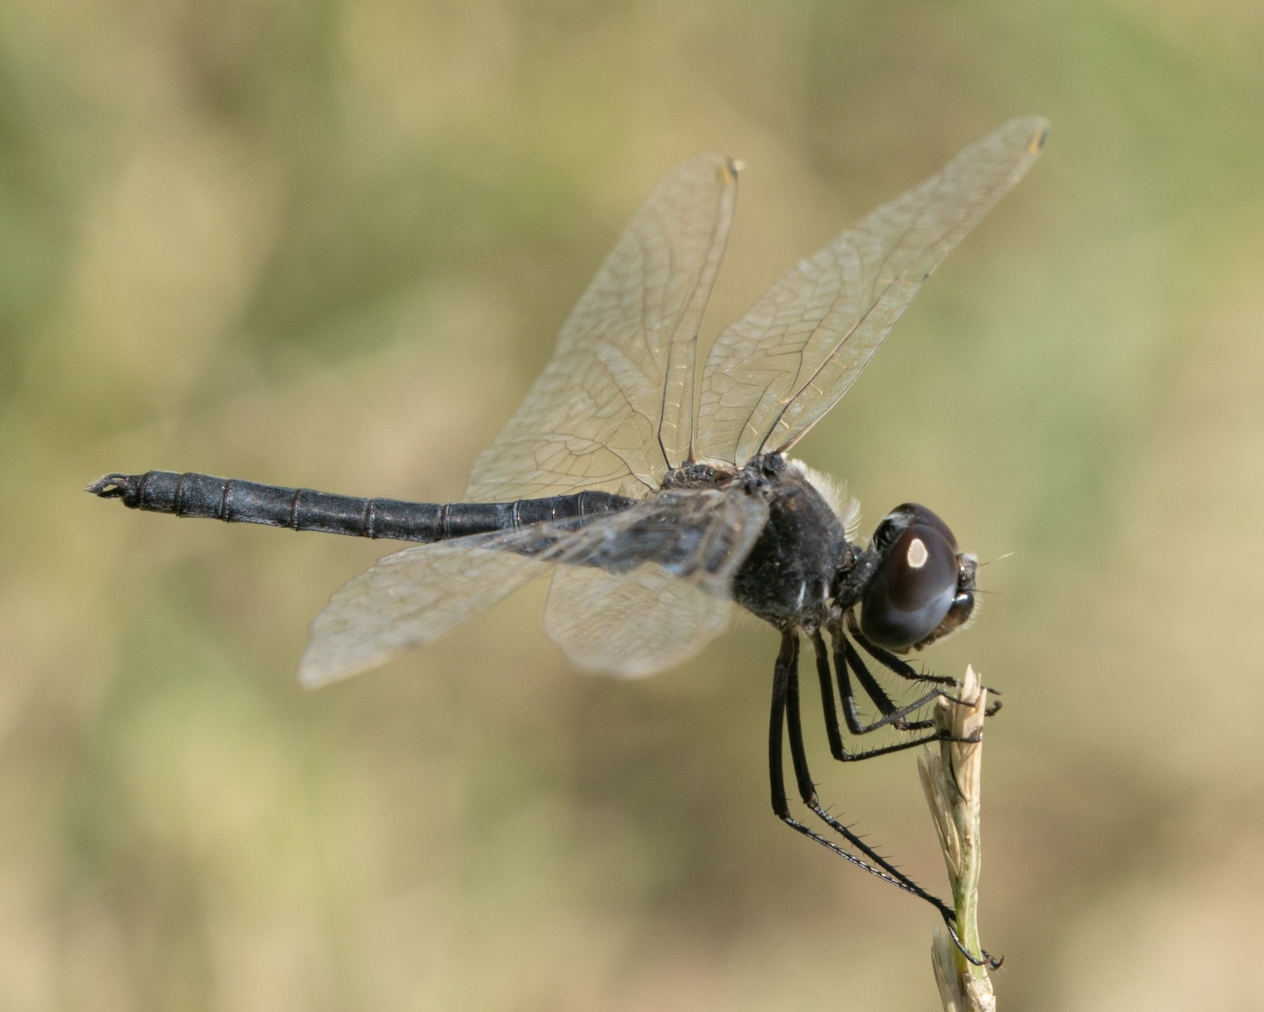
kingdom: Animalia
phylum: Arthropoda
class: Insecta
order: Odonata
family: Libellulidae
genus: Selysiothemis
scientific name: Selysiothemis nigra
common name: Black pennant
